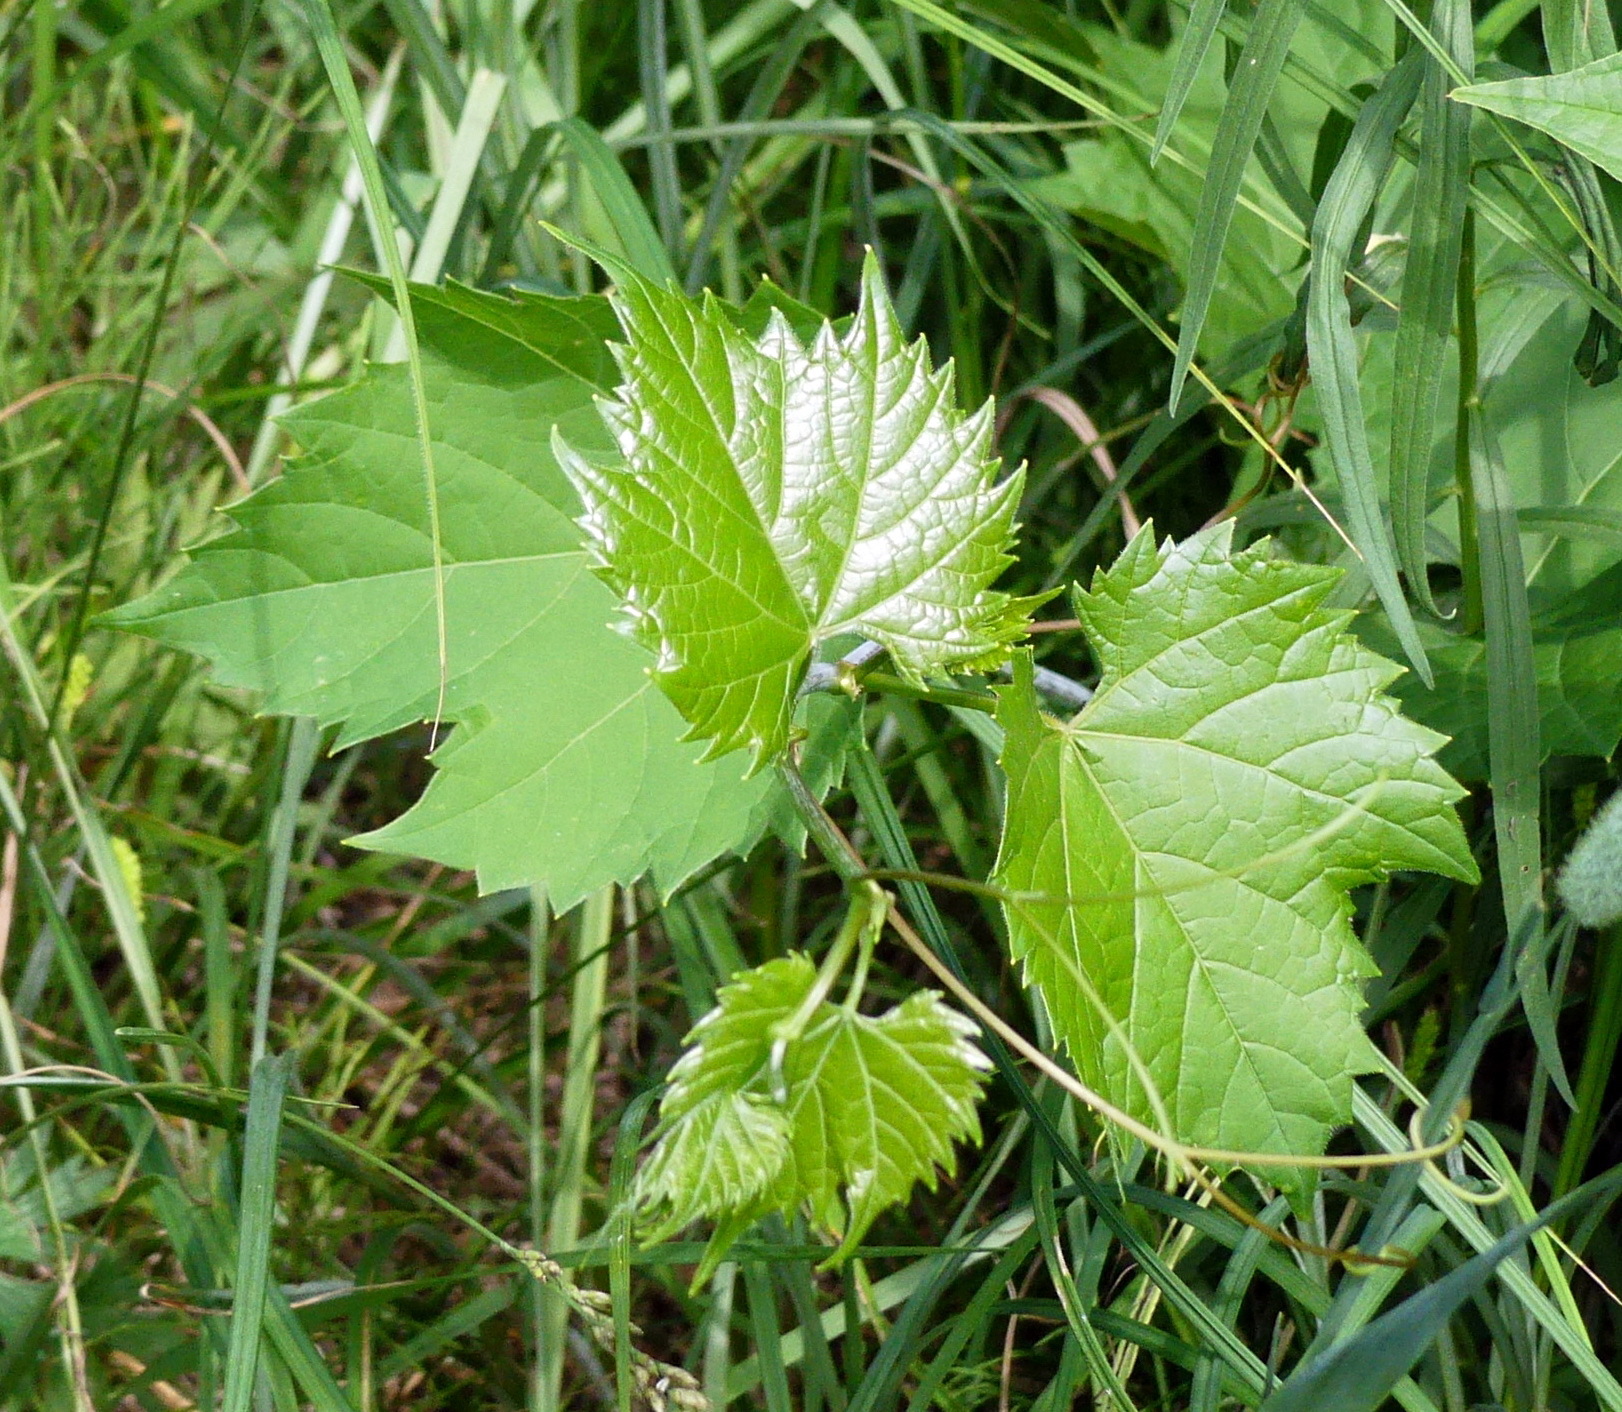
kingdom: Plantae
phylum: Tracheophyta
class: Magnoliopsida
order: Vitales
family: Vitaceae
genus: Vitis
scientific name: Vitis riparia
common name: Frost grape
